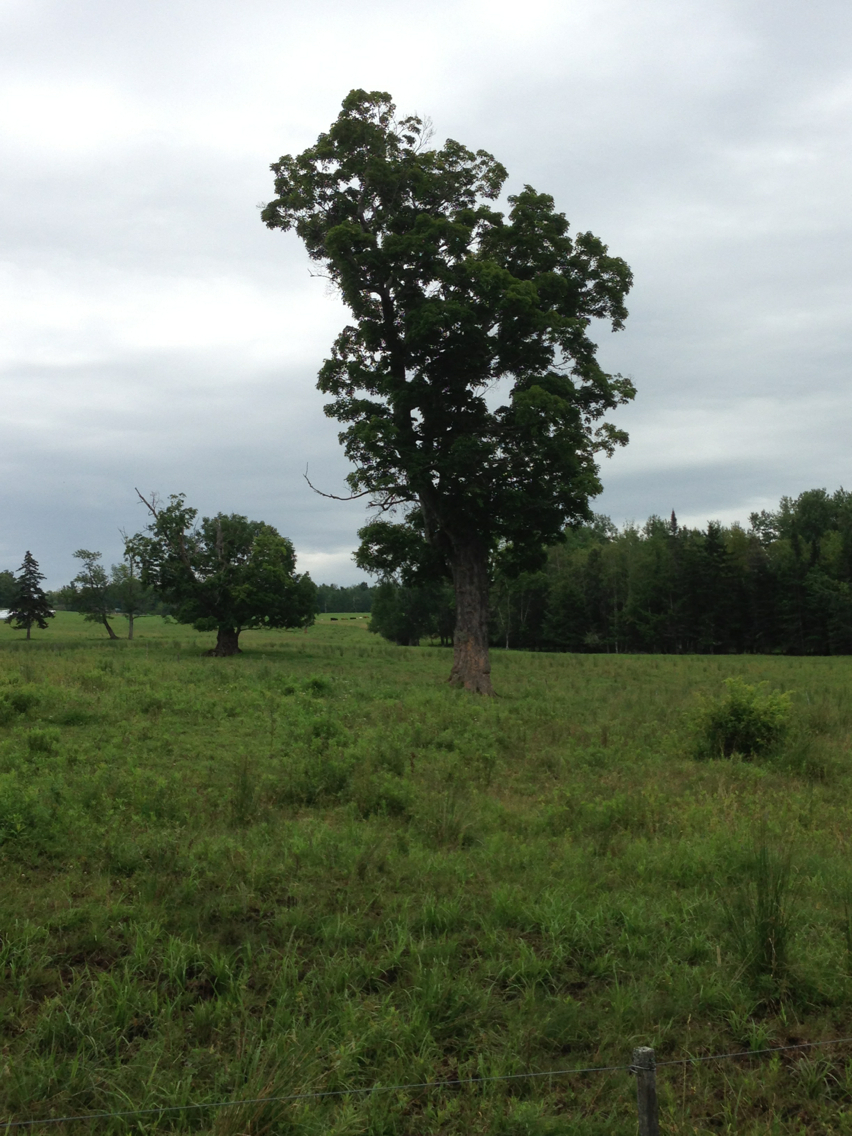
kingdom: Plantae
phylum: Tracheophyta
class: Magnoliopsida
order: Sapindales
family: Sapindaceae
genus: Acer
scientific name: Acer saccharum
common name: Sugar maple
